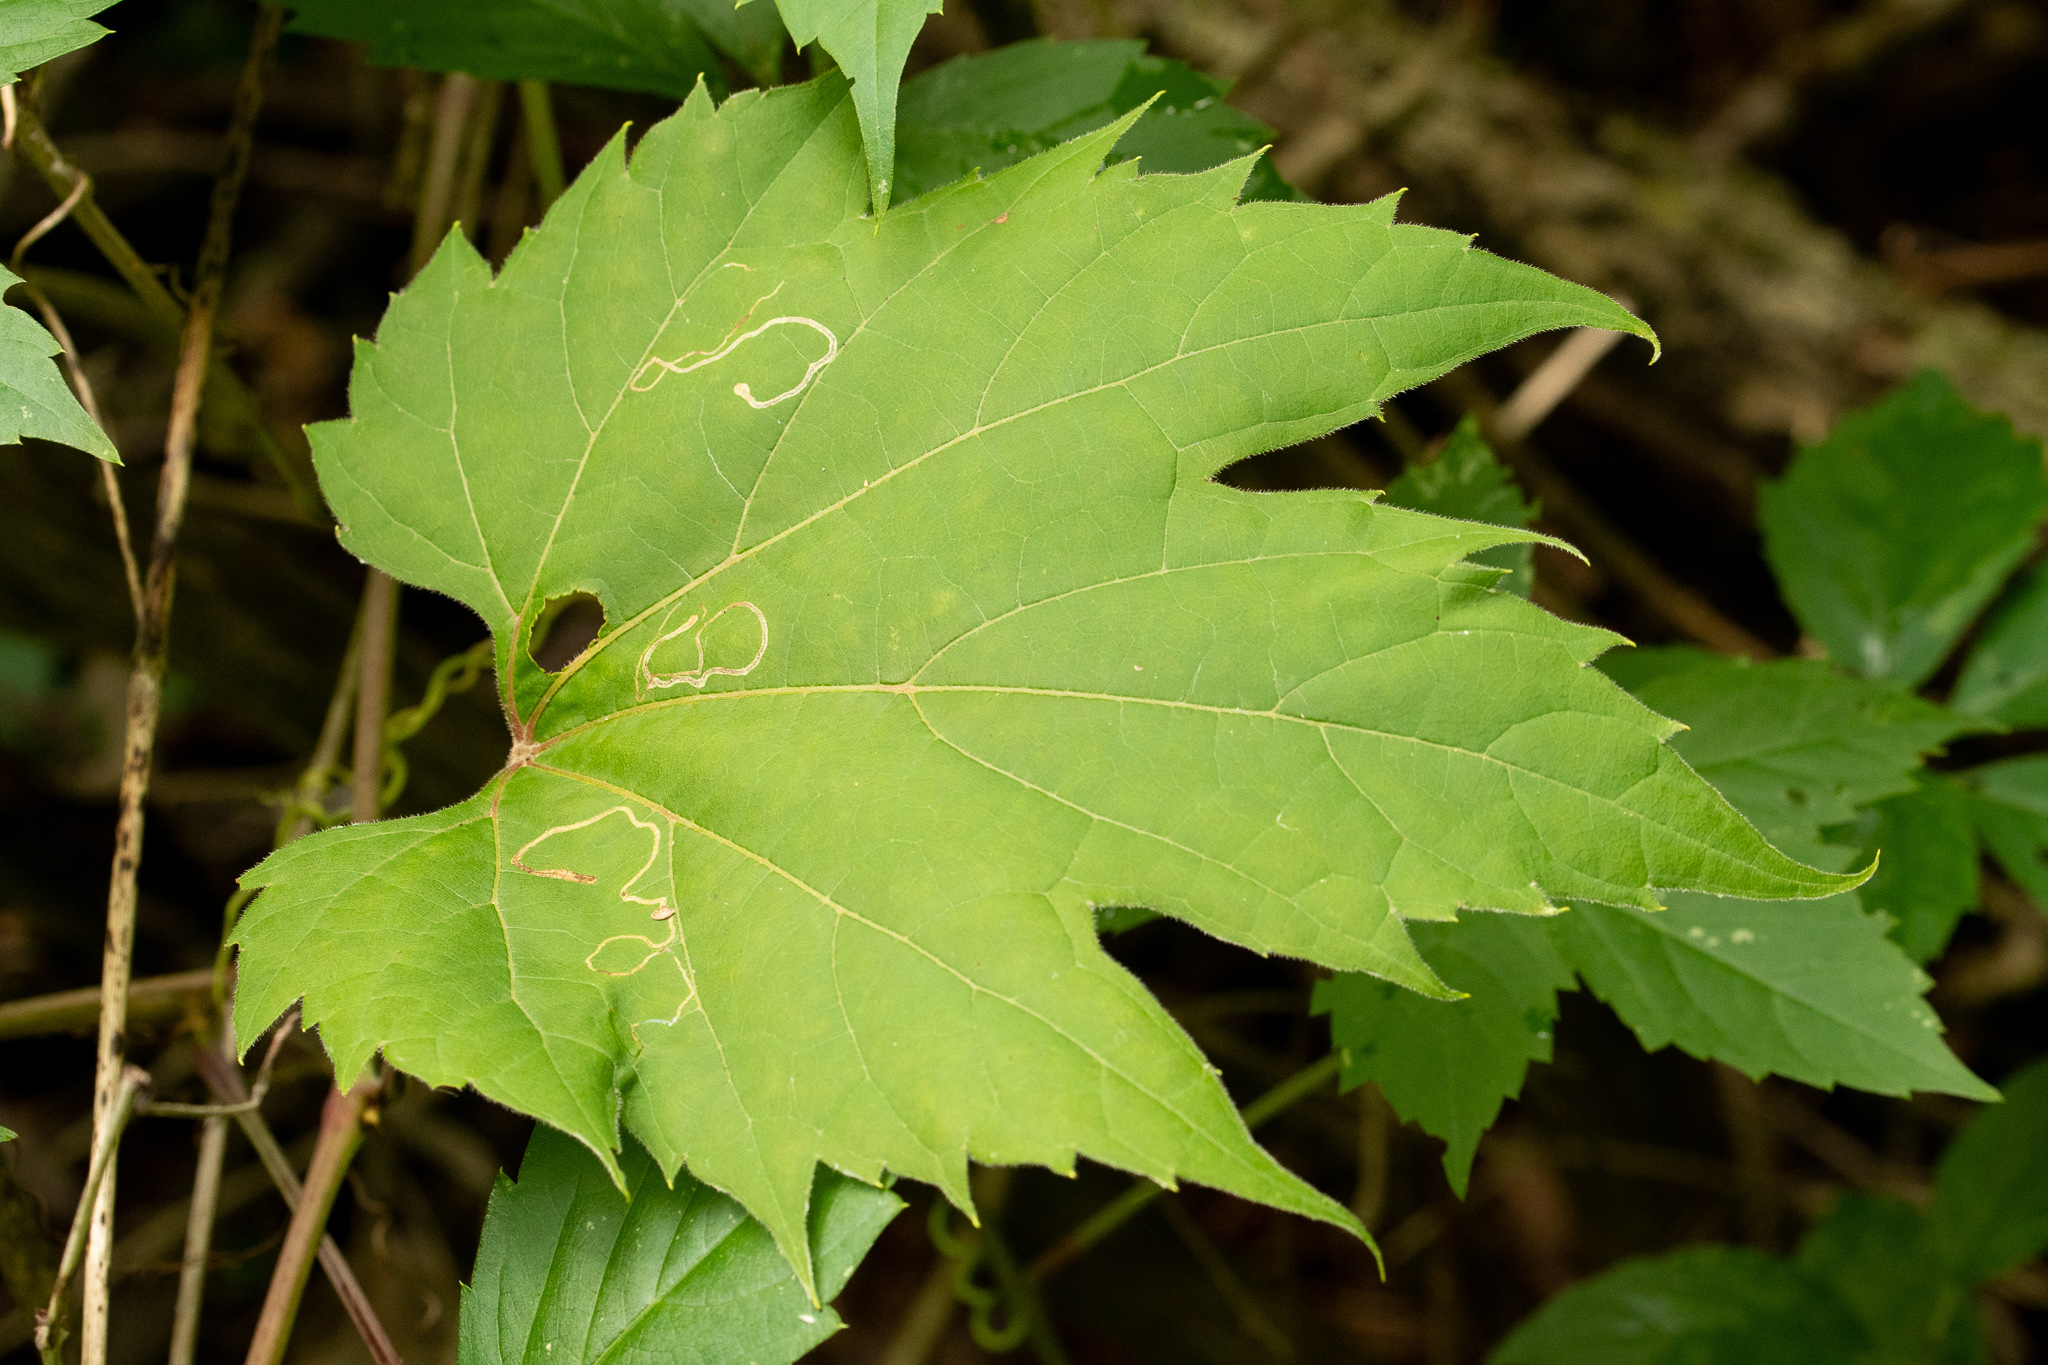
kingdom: Animalia
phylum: Arthropoda
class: Insecta
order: Lepidoptera
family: Gracillariidae
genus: Phyllocnistis
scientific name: Phyllocnistis vitifoliella
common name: Grape leaf-miner moth
